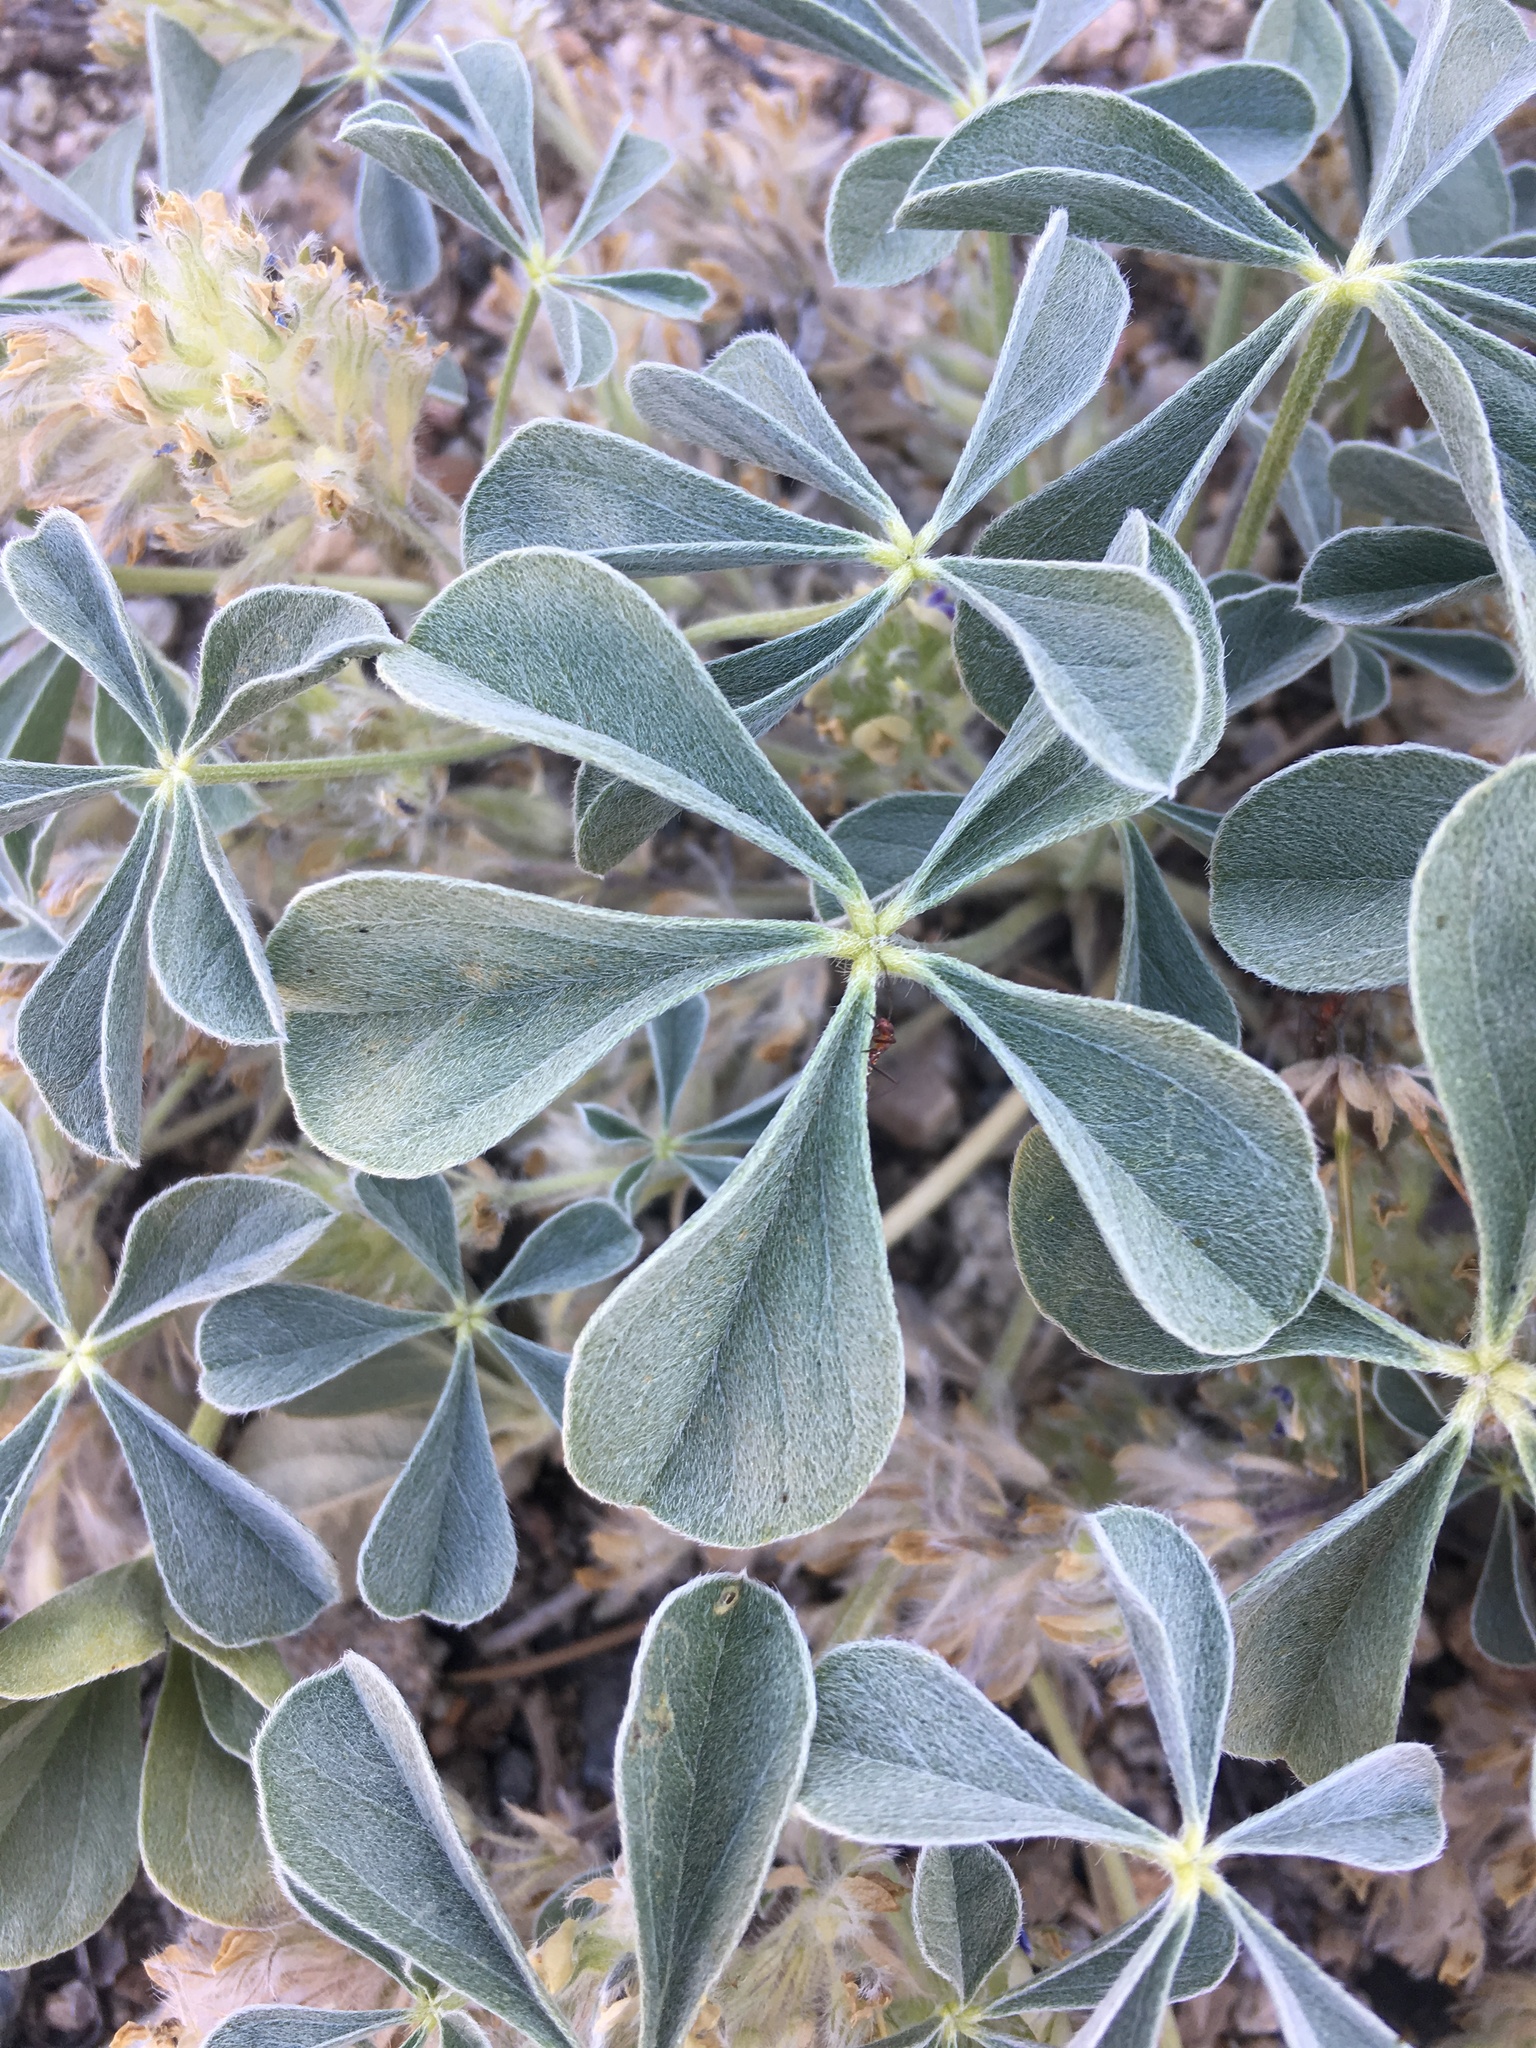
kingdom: Plantae
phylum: Tracheophyta
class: Magnoliopsida
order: Fabales
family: Fabaceae
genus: Pediomelum
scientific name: Pediomelum californicum
